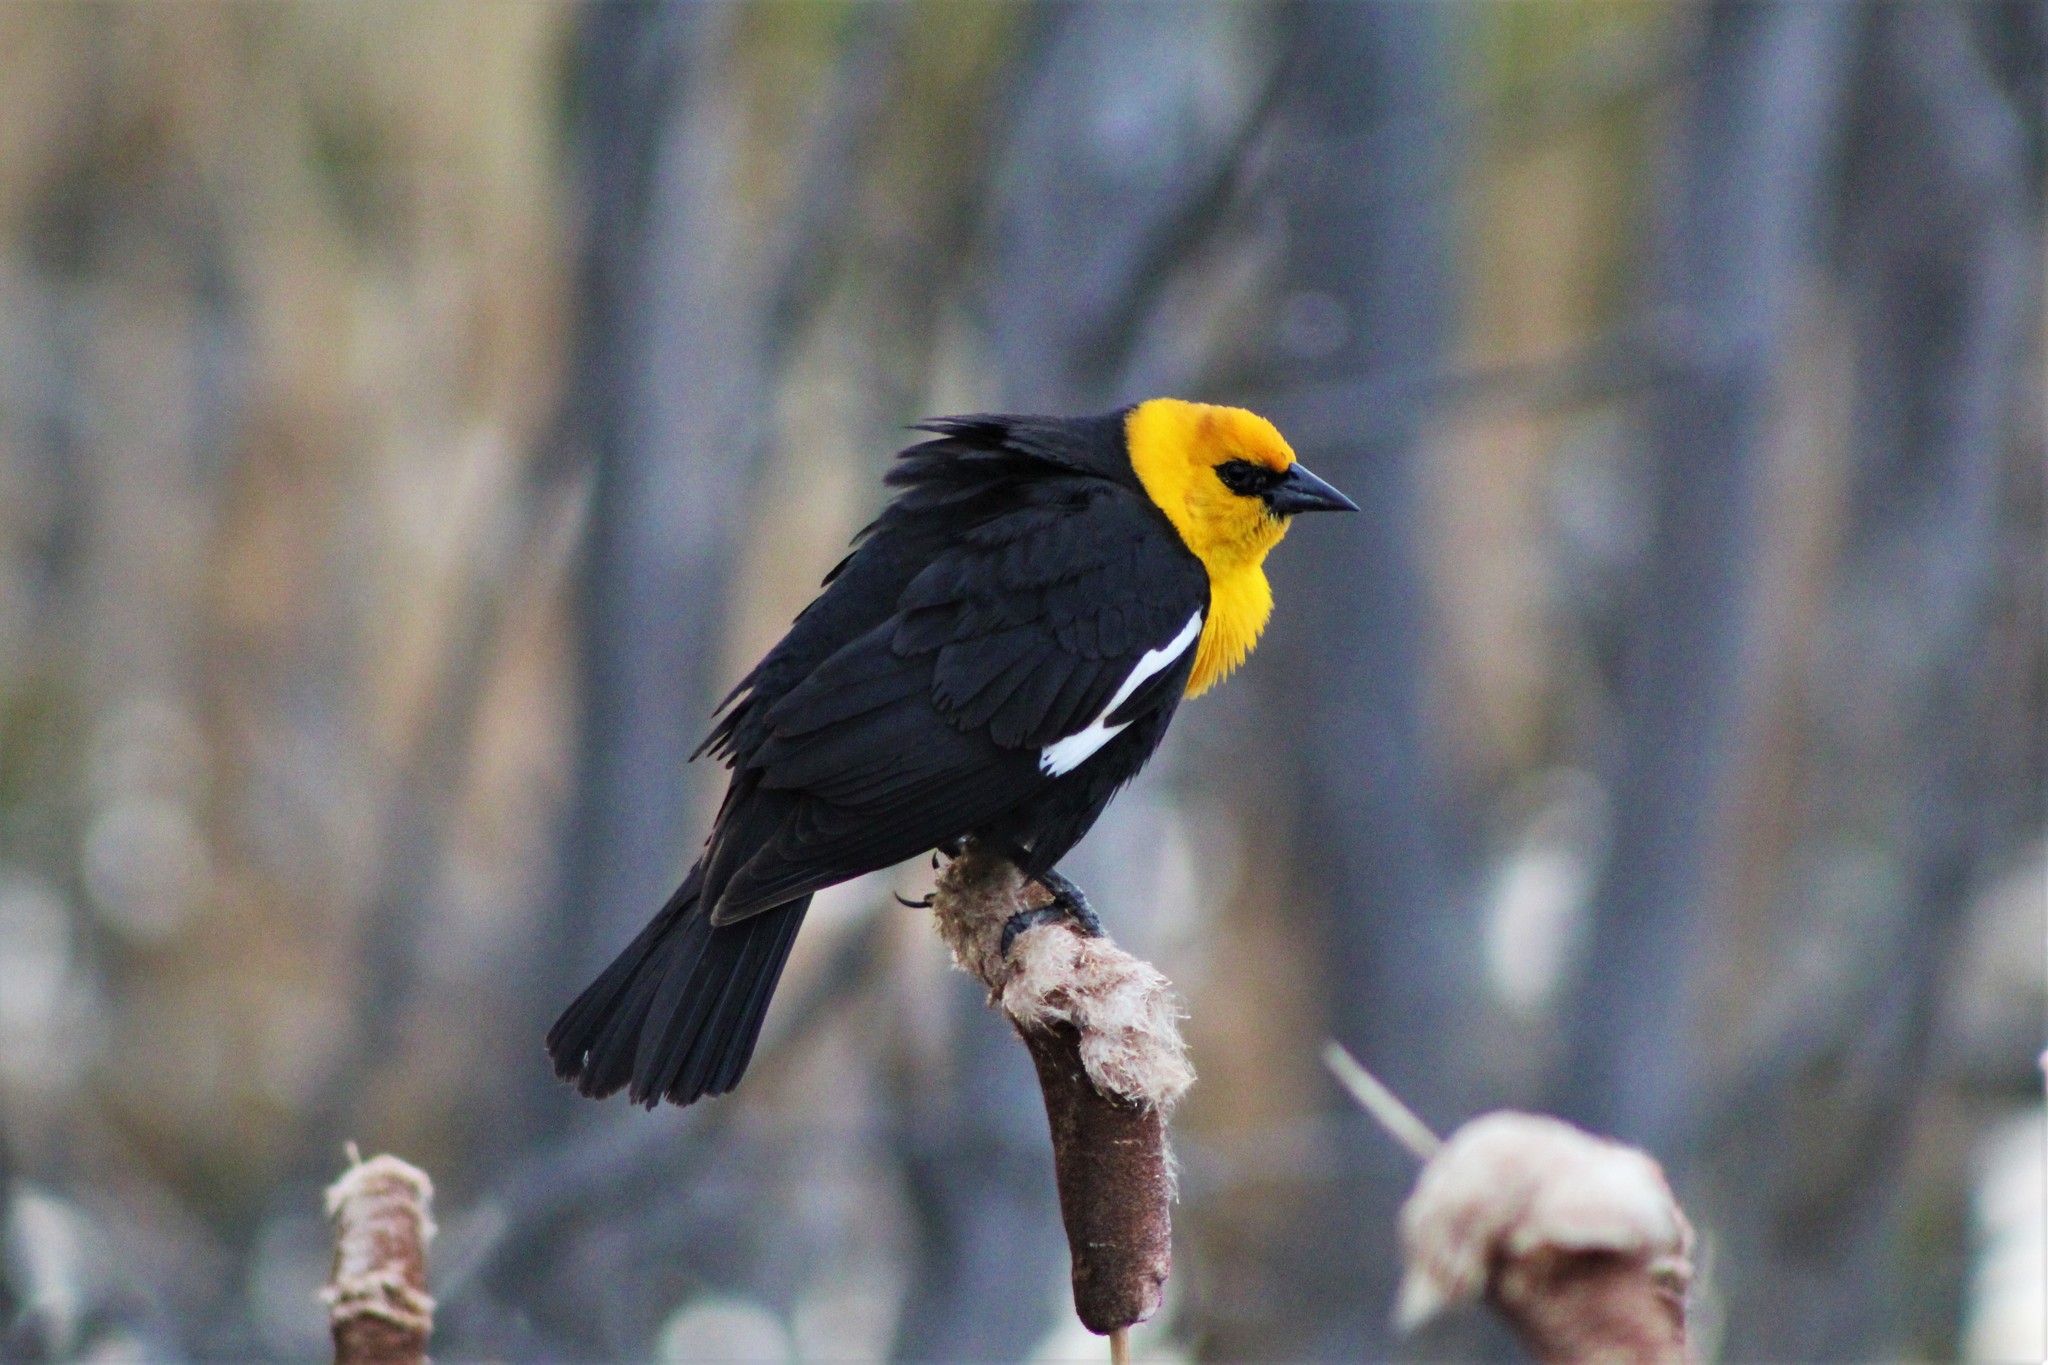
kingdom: Animalia
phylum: Chordata
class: Aves
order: Passeriformes
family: Icteridae
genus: Xanthocephalus
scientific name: Xanthocephalus xanthocephalus
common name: Yellow-headed blackbird
